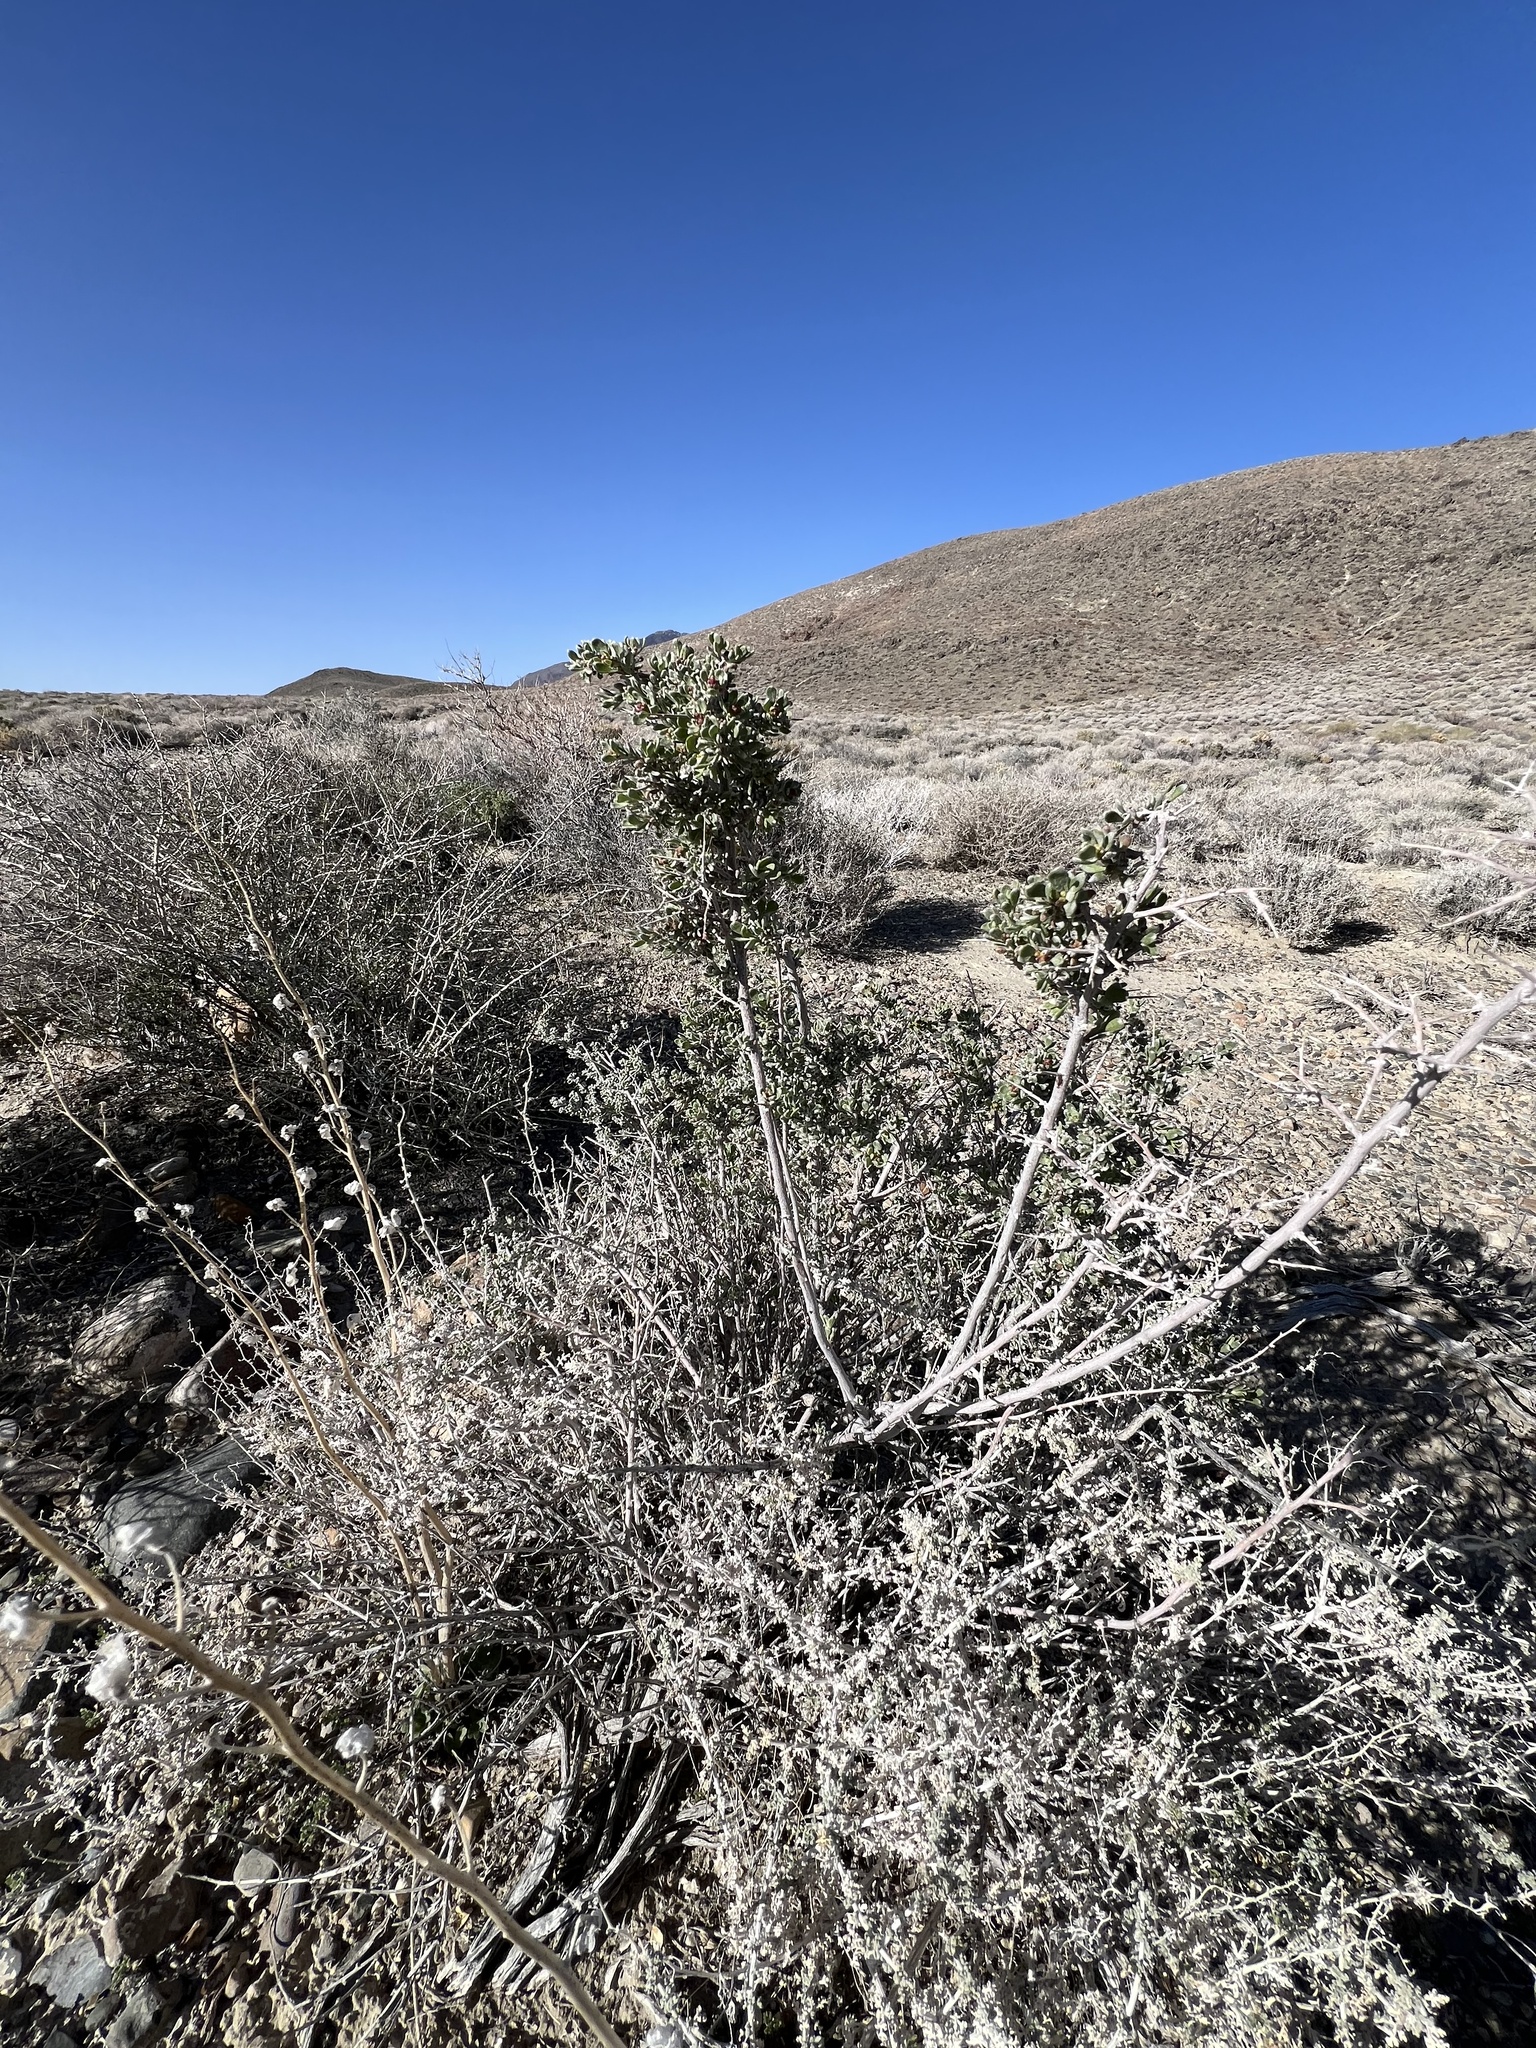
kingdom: Plantae
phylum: Tracheophyta
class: Magnoliopsida
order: Caryophyllales
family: Amaranthaceae
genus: Grayia
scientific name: Grayia spinosa
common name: Spiny hopsage
